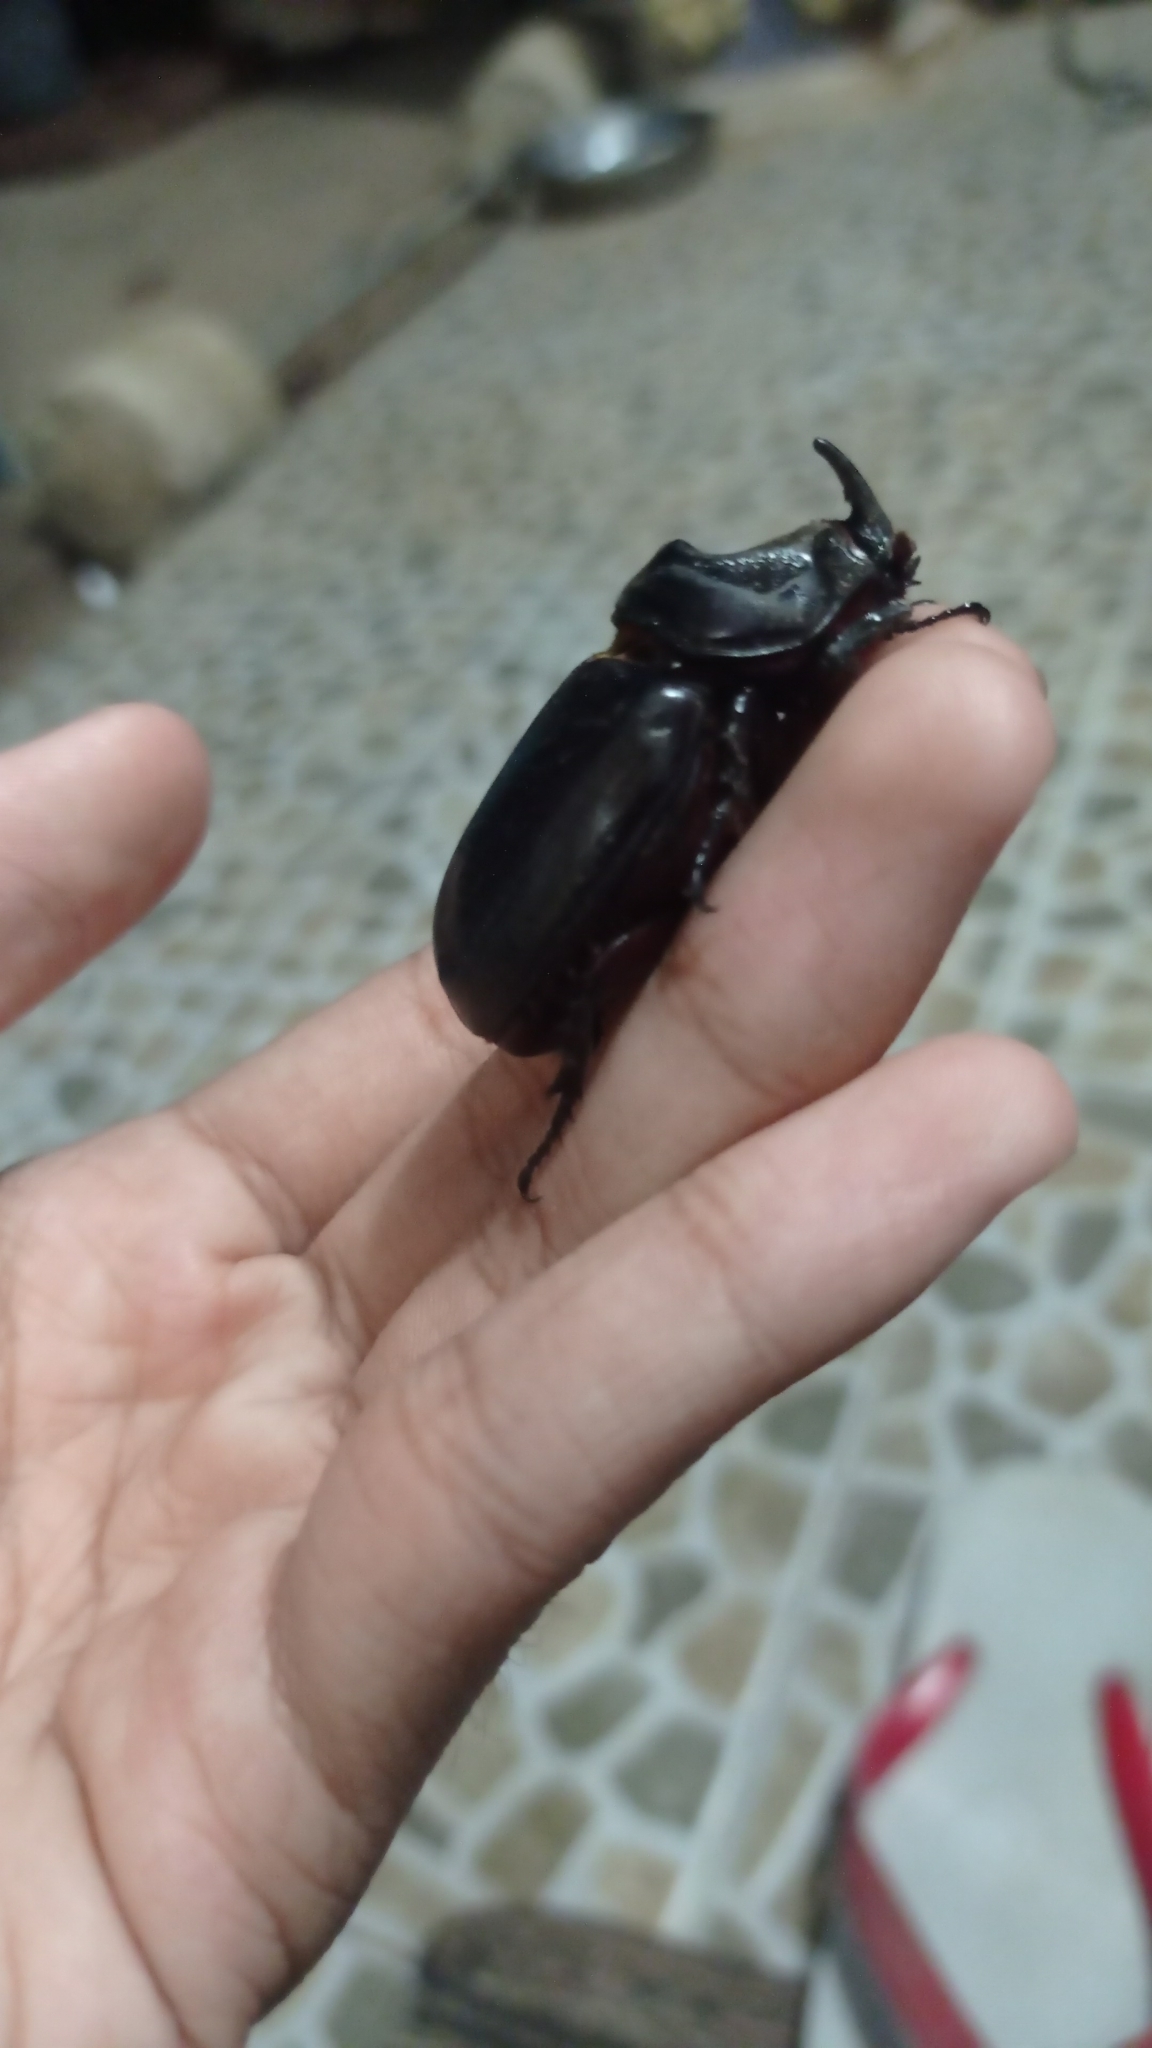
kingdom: Animalia
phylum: Arthropoda
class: Insecta
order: Coleoptera
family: Scarabaeidae
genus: Oryctes
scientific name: Oryctes rhinoceros
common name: Coconut rhinoceros beetle
